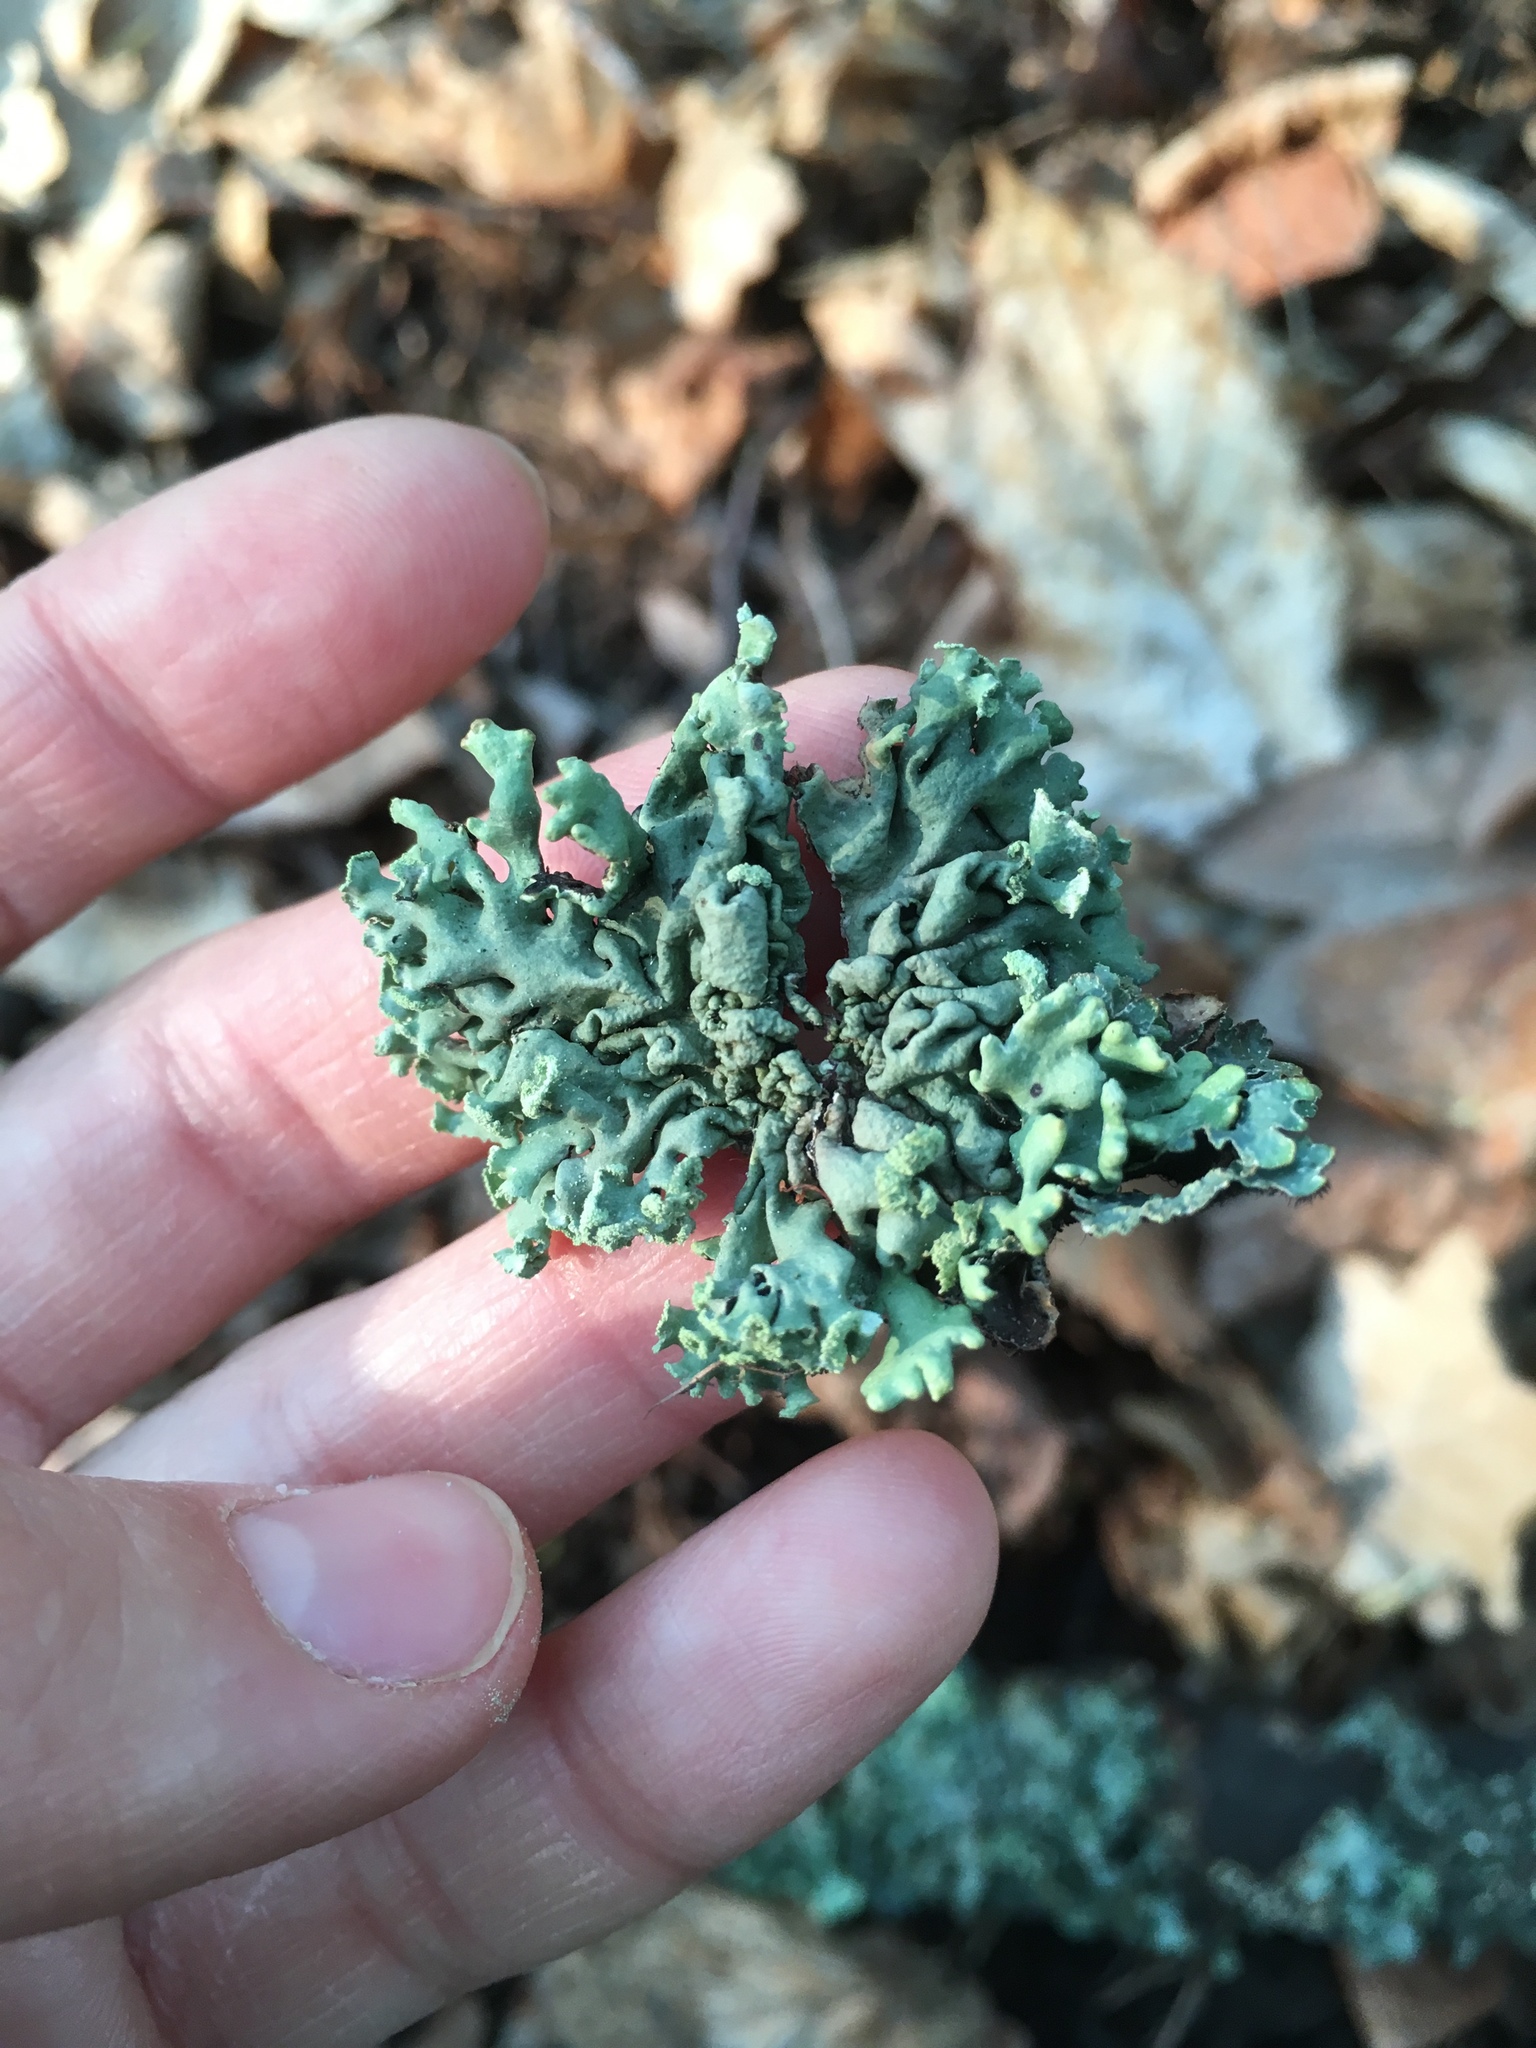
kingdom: Fungi
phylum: Ascomycota
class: Lecanoromycetes
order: Lecanorales
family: Parmeliaceae
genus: Hypogymnia
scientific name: Hypogymnia physodes
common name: Dark crottle
